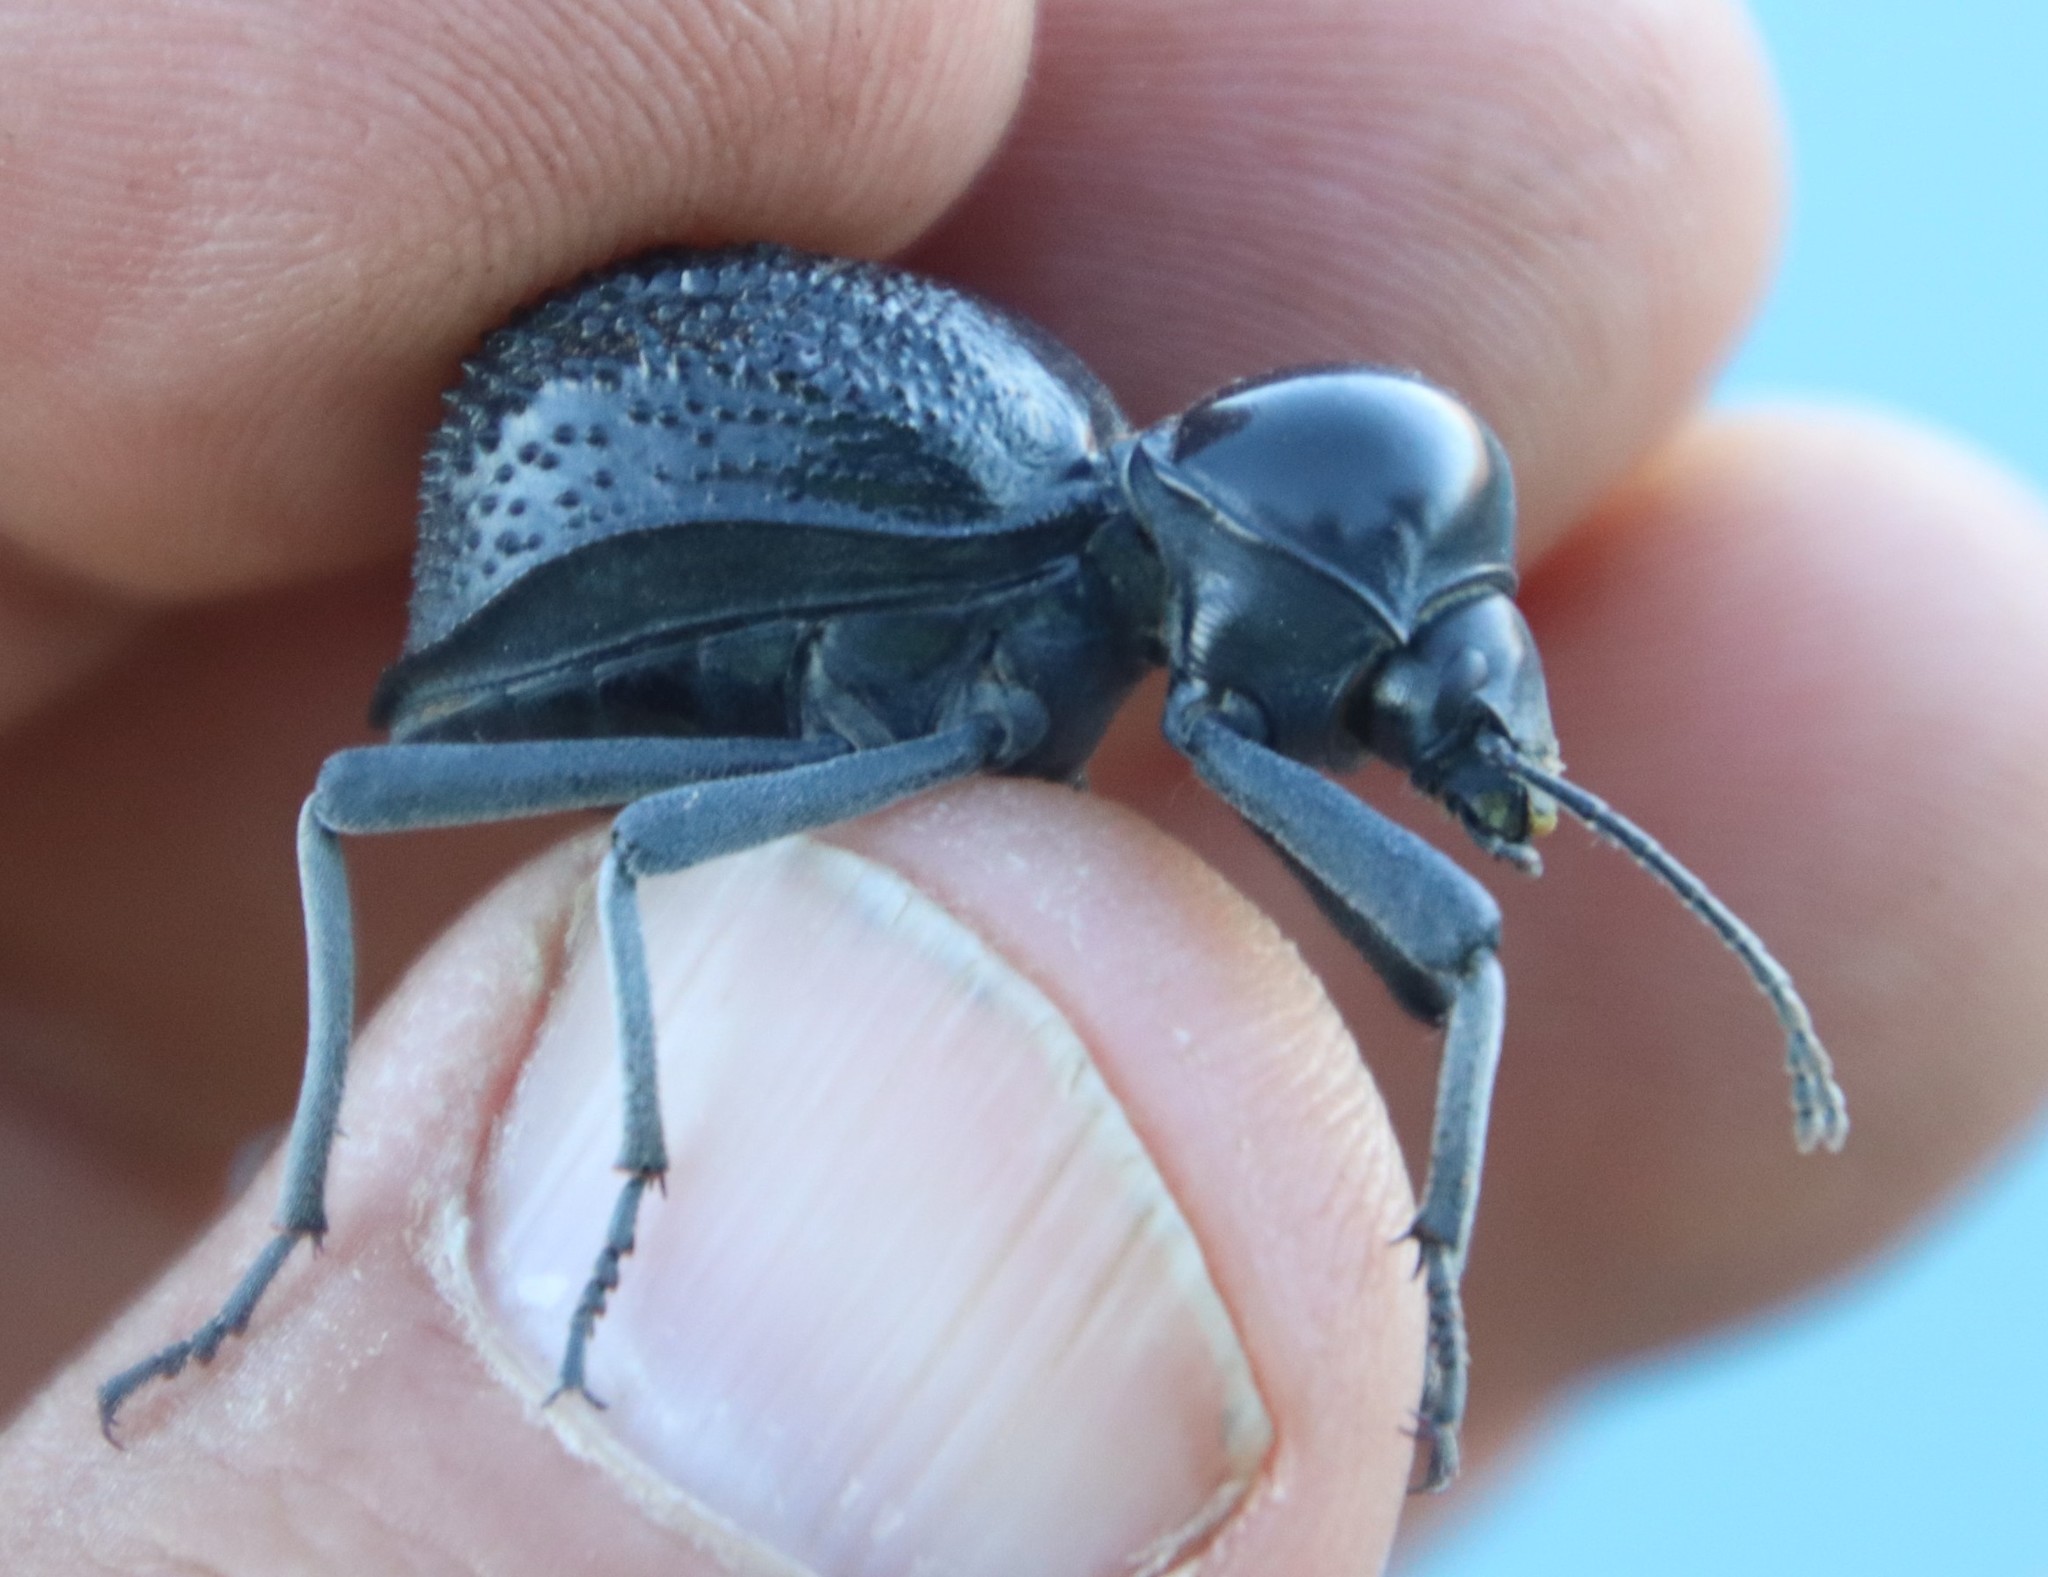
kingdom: Animalia
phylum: Arthropoda
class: Insecta
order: Coleoptera
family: Tenebrionidae
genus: Moluris
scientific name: Moluris semiscabra
